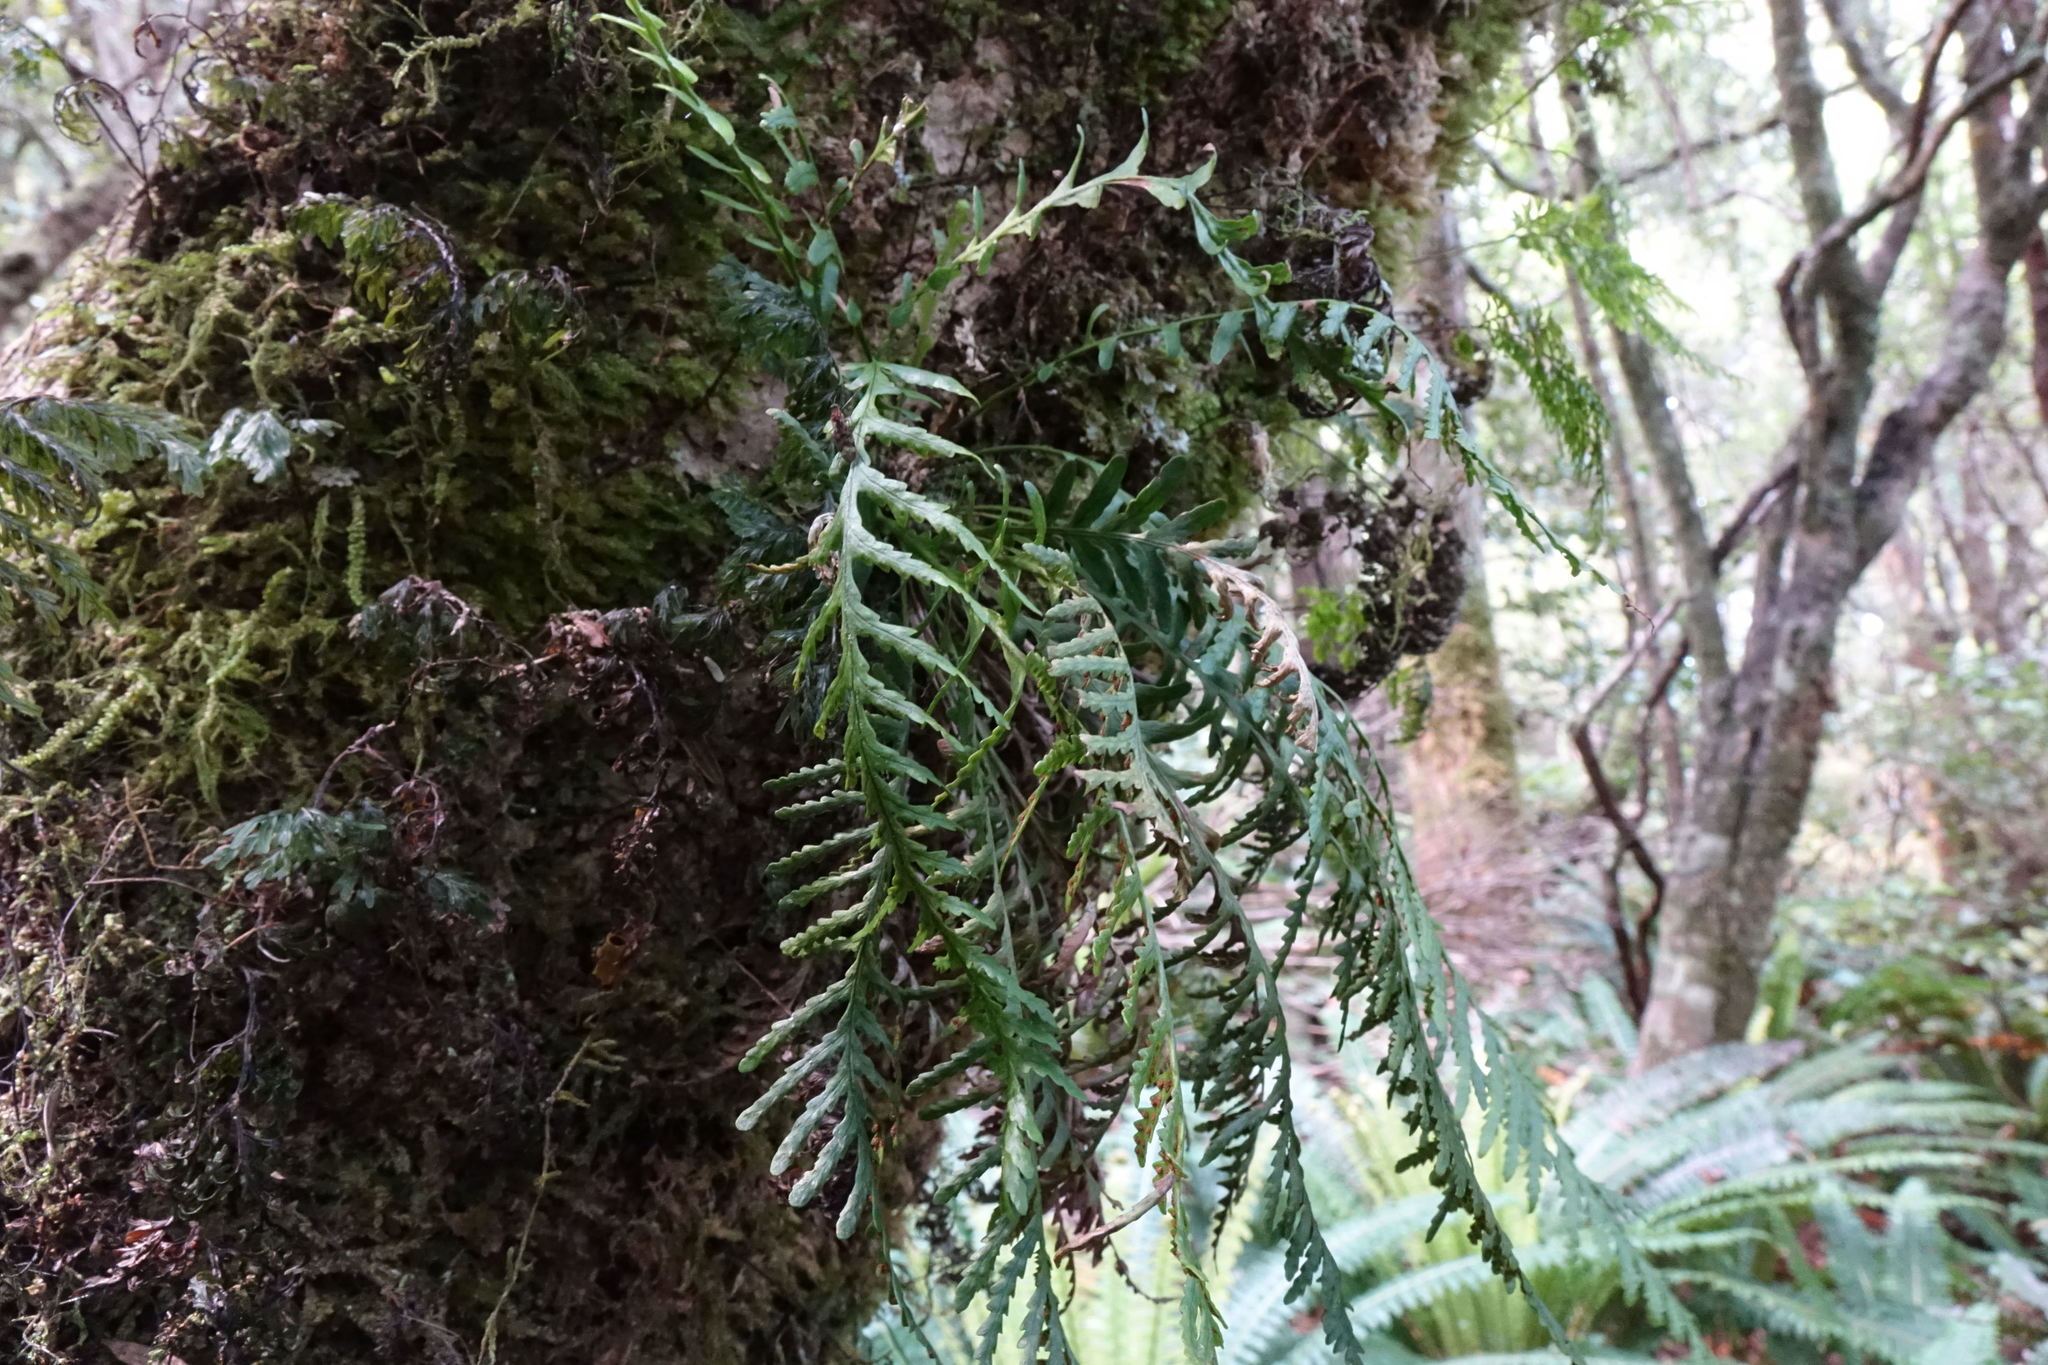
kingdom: Plantae
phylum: Tracheophyta
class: Polypodiopsida
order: Polypodiales
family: Polypodiaceae
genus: Notogrammitis
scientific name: Notogrammitis heterophylla
